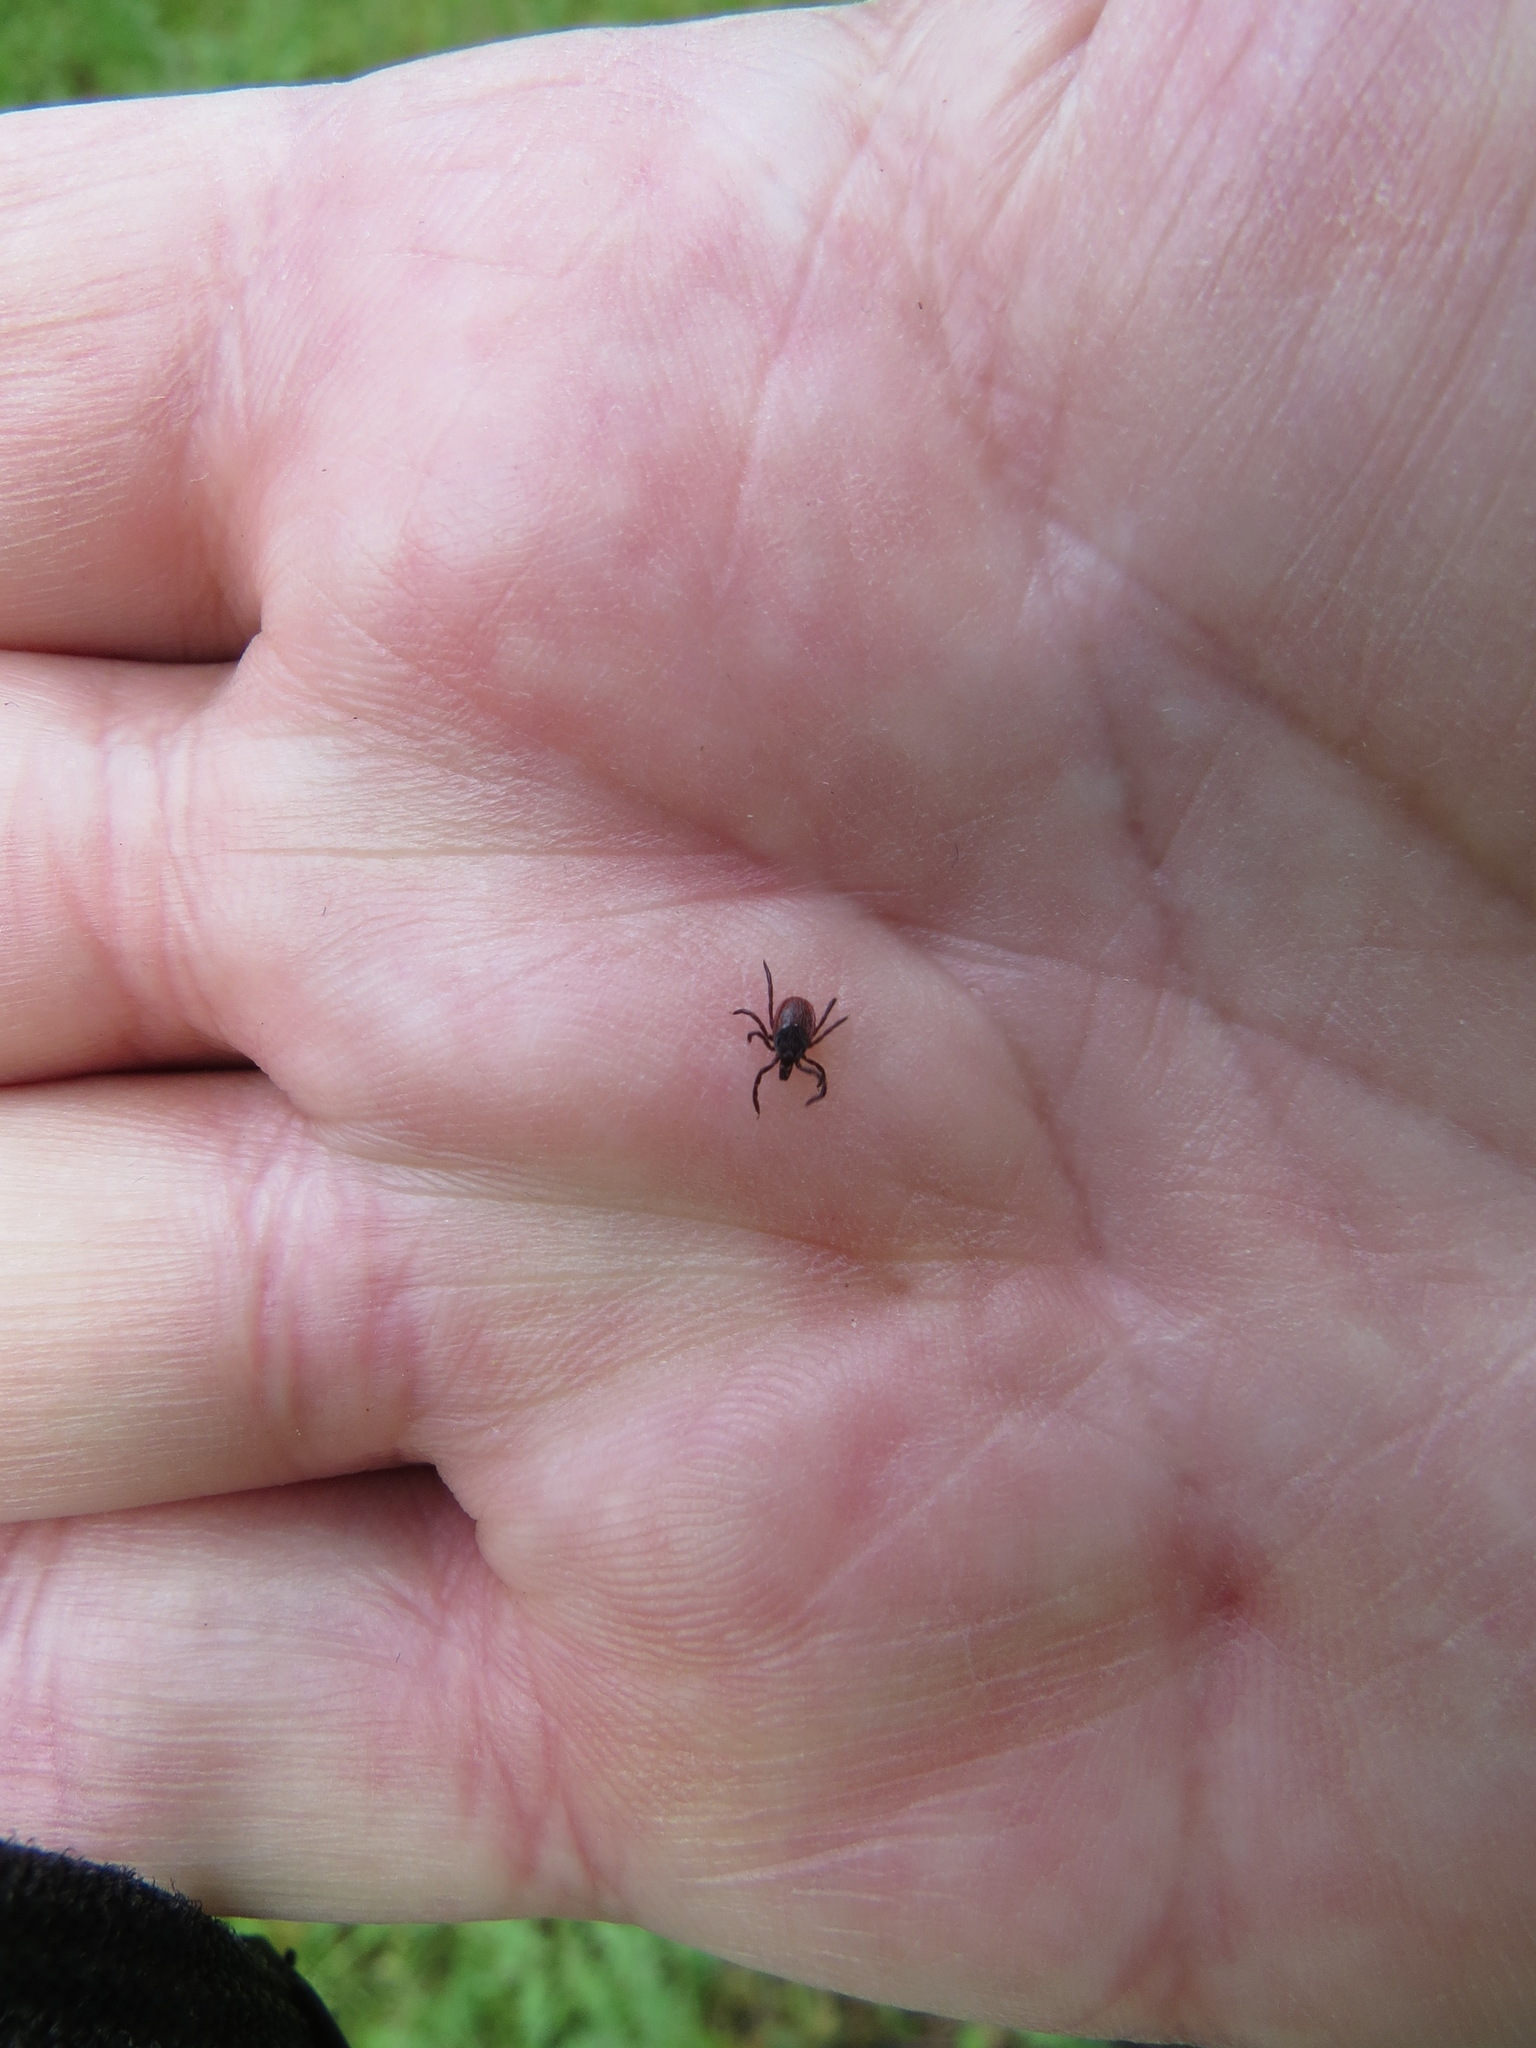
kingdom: Animalia
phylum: Arthropoda
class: Arachnida
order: Ixodida
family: Ixodidae
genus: Ixodes
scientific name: Ixodes pacificus
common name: California black-legged tick
